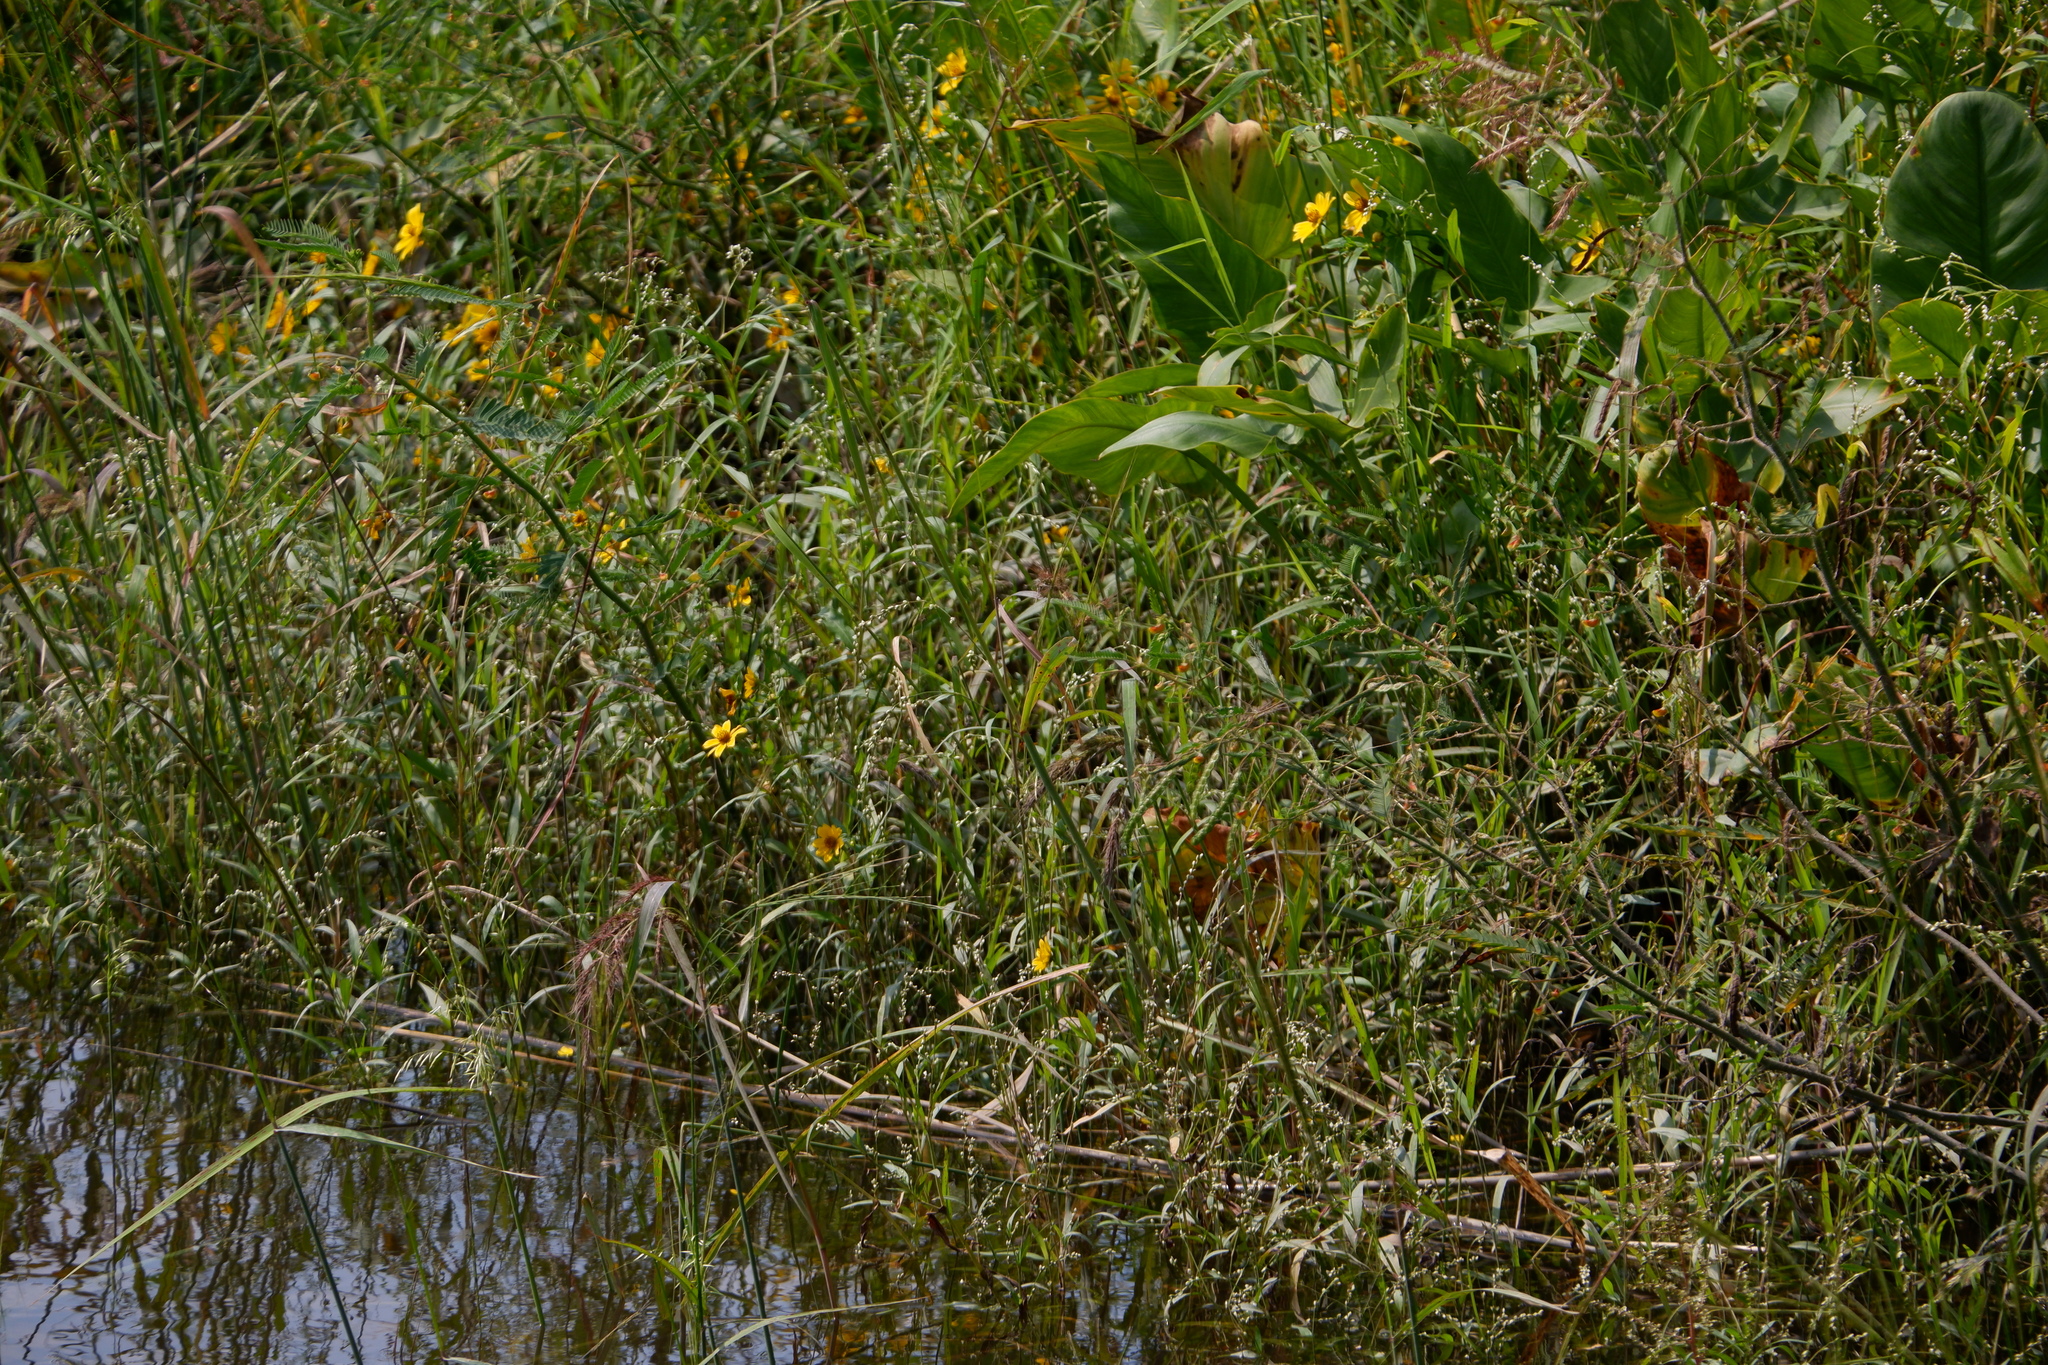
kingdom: Plantae
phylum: Tracheophyta
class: Magnoliopsida
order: Fabales
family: Fabaceae
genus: Aeschynomene
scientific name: Aeschynomene virginica
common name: Sensitive joint-vetch
